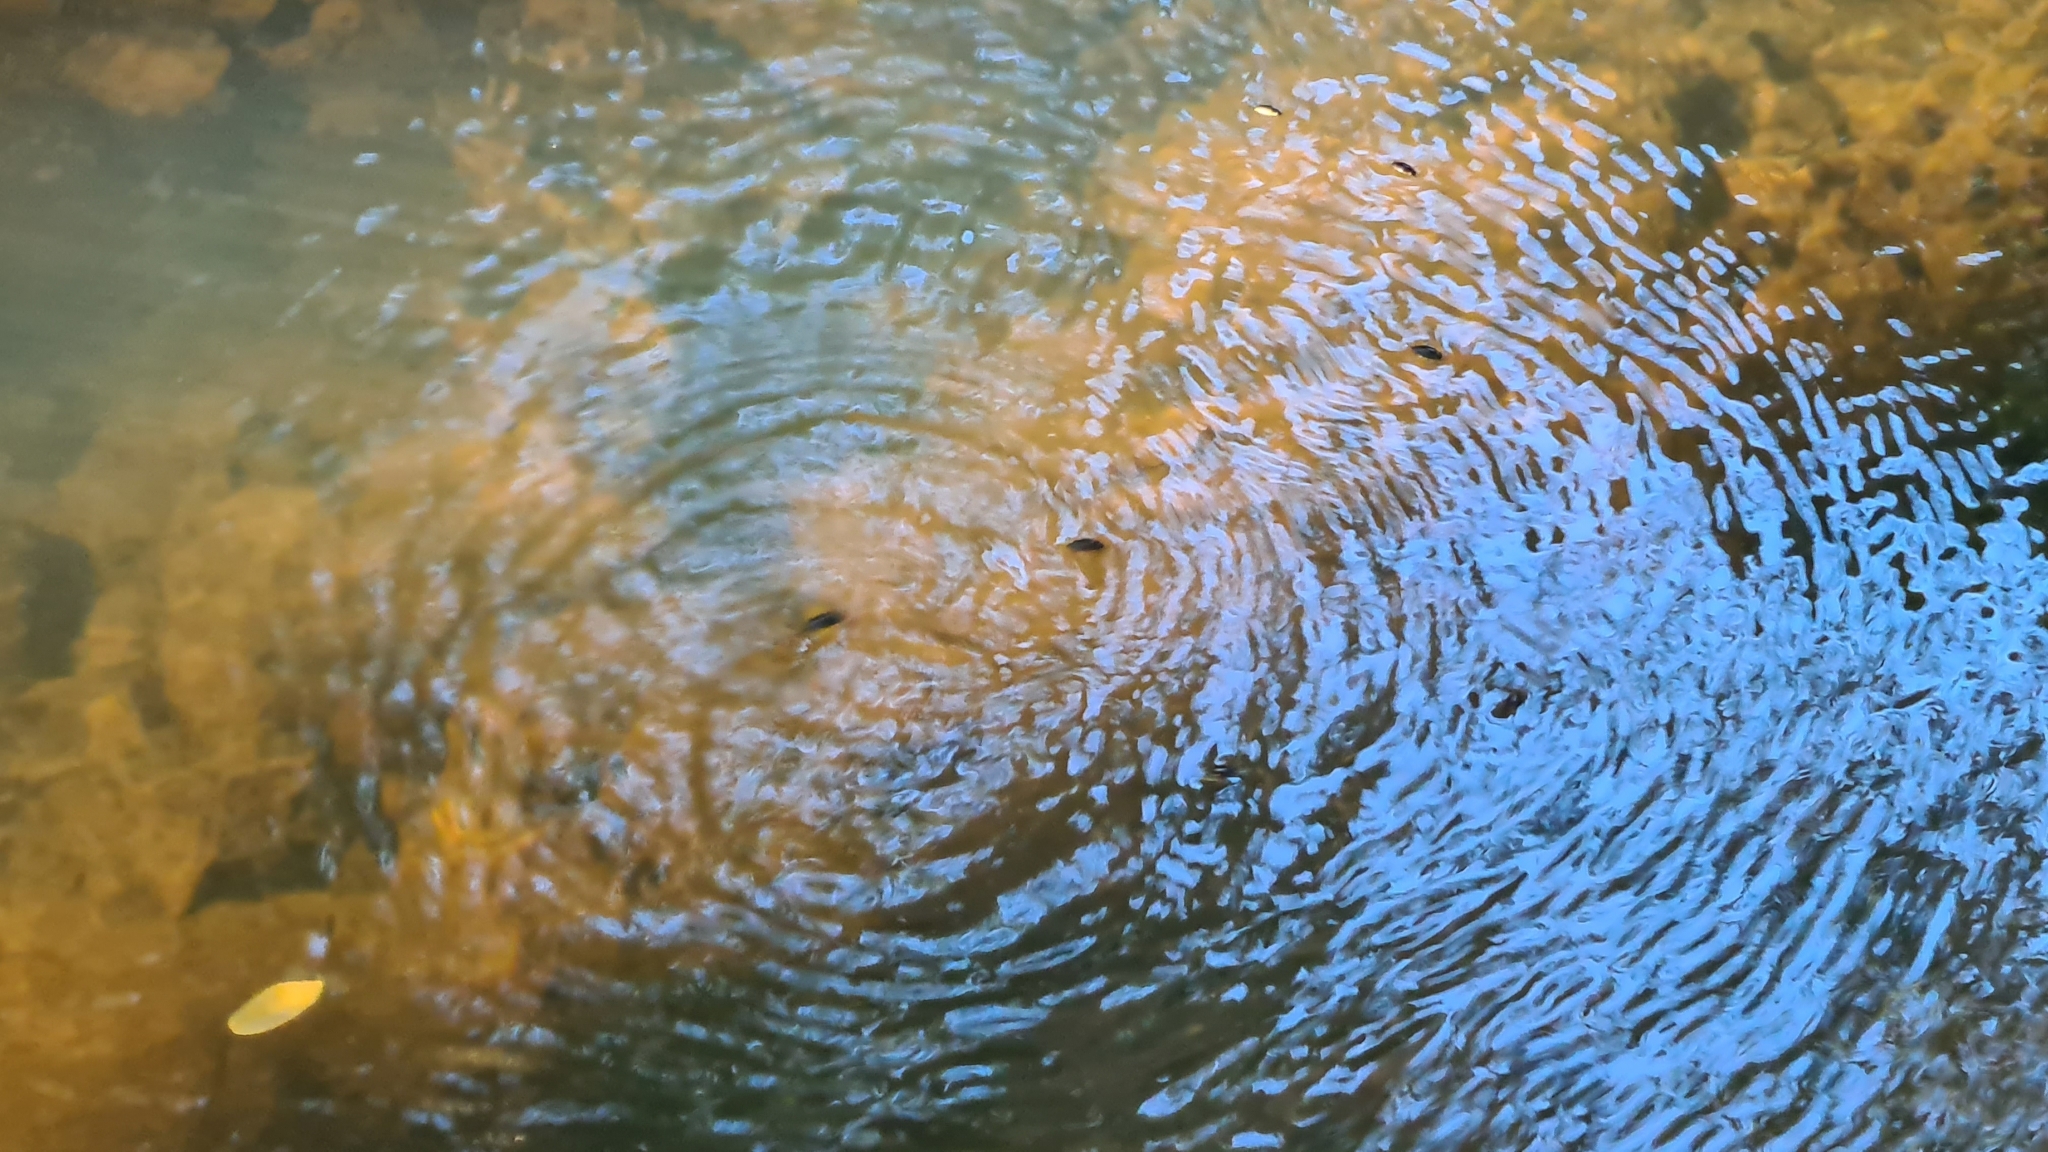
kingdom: Animalia
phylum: Arthropoda
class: Insecta
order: Coleoptera
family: Gyrinidae
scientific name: Gyrinidae
